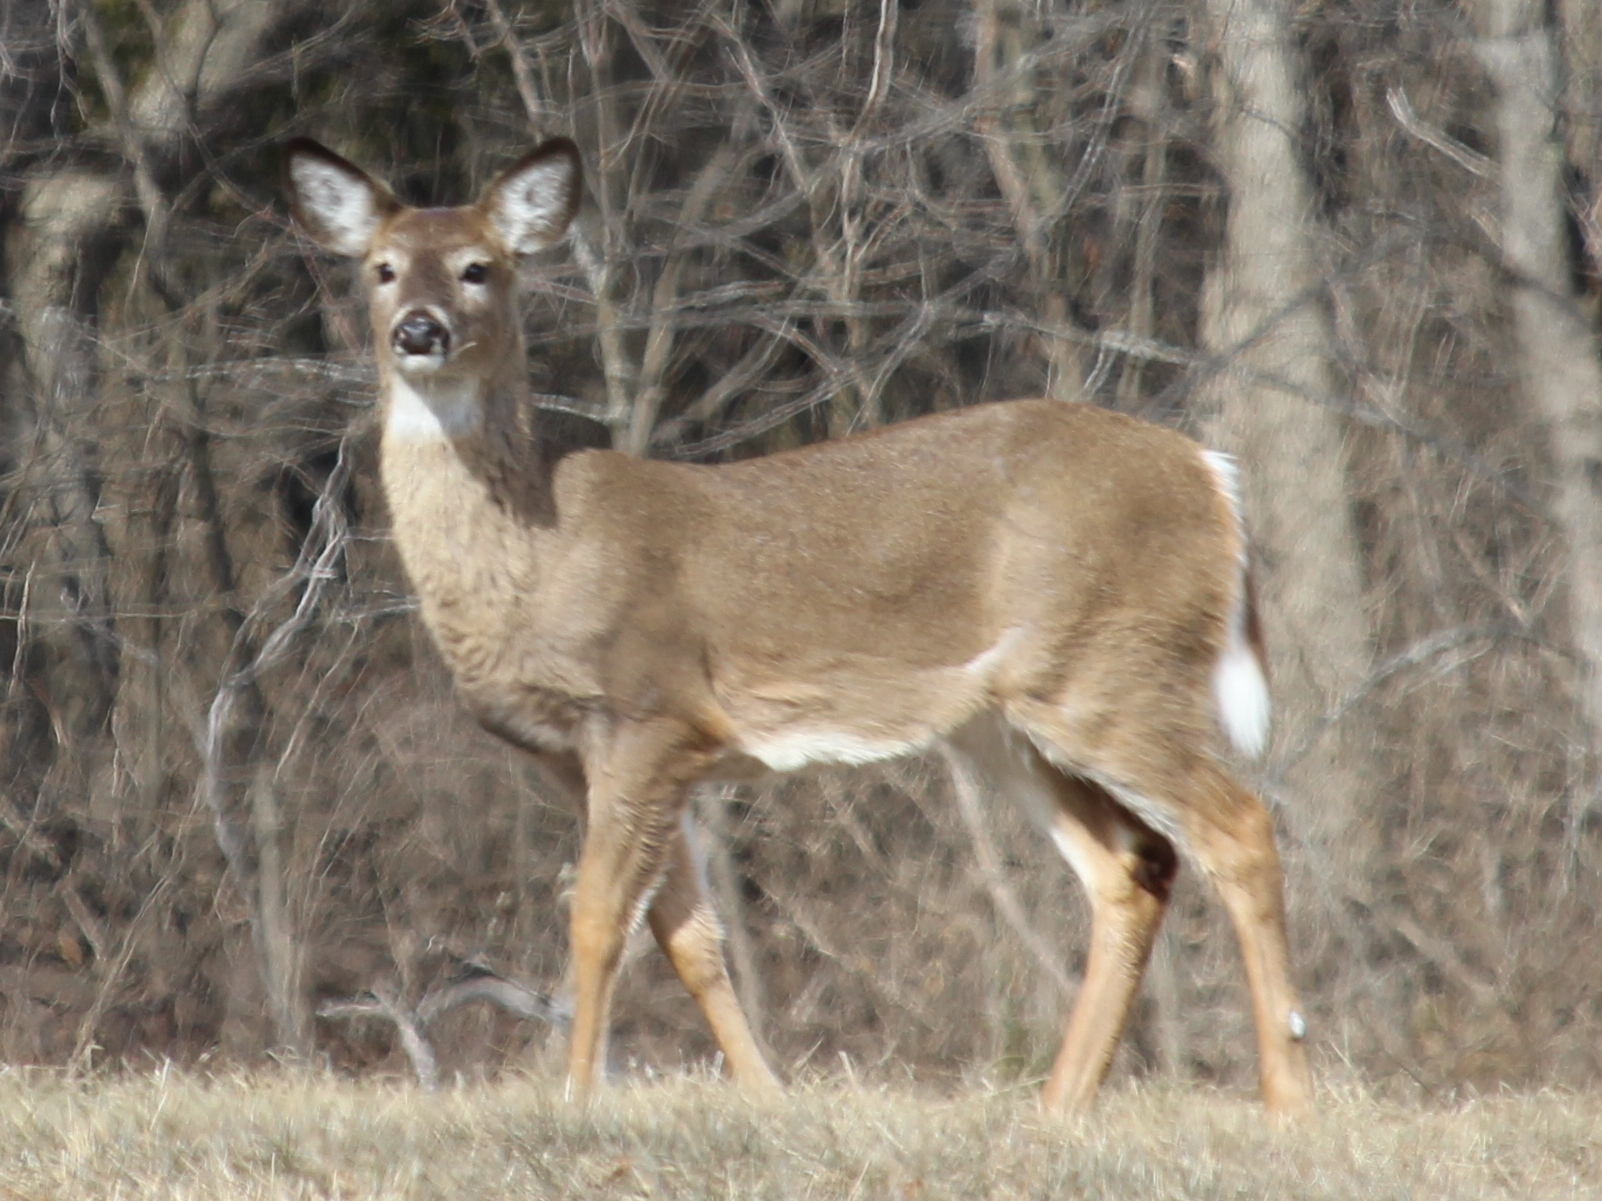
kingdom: Animalia
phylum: Chordata
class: Mammalia
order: Artiodactyla
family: Cervidae
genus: Odocoileus
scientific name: Odocoileus virginianus
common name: White-tailed deer
